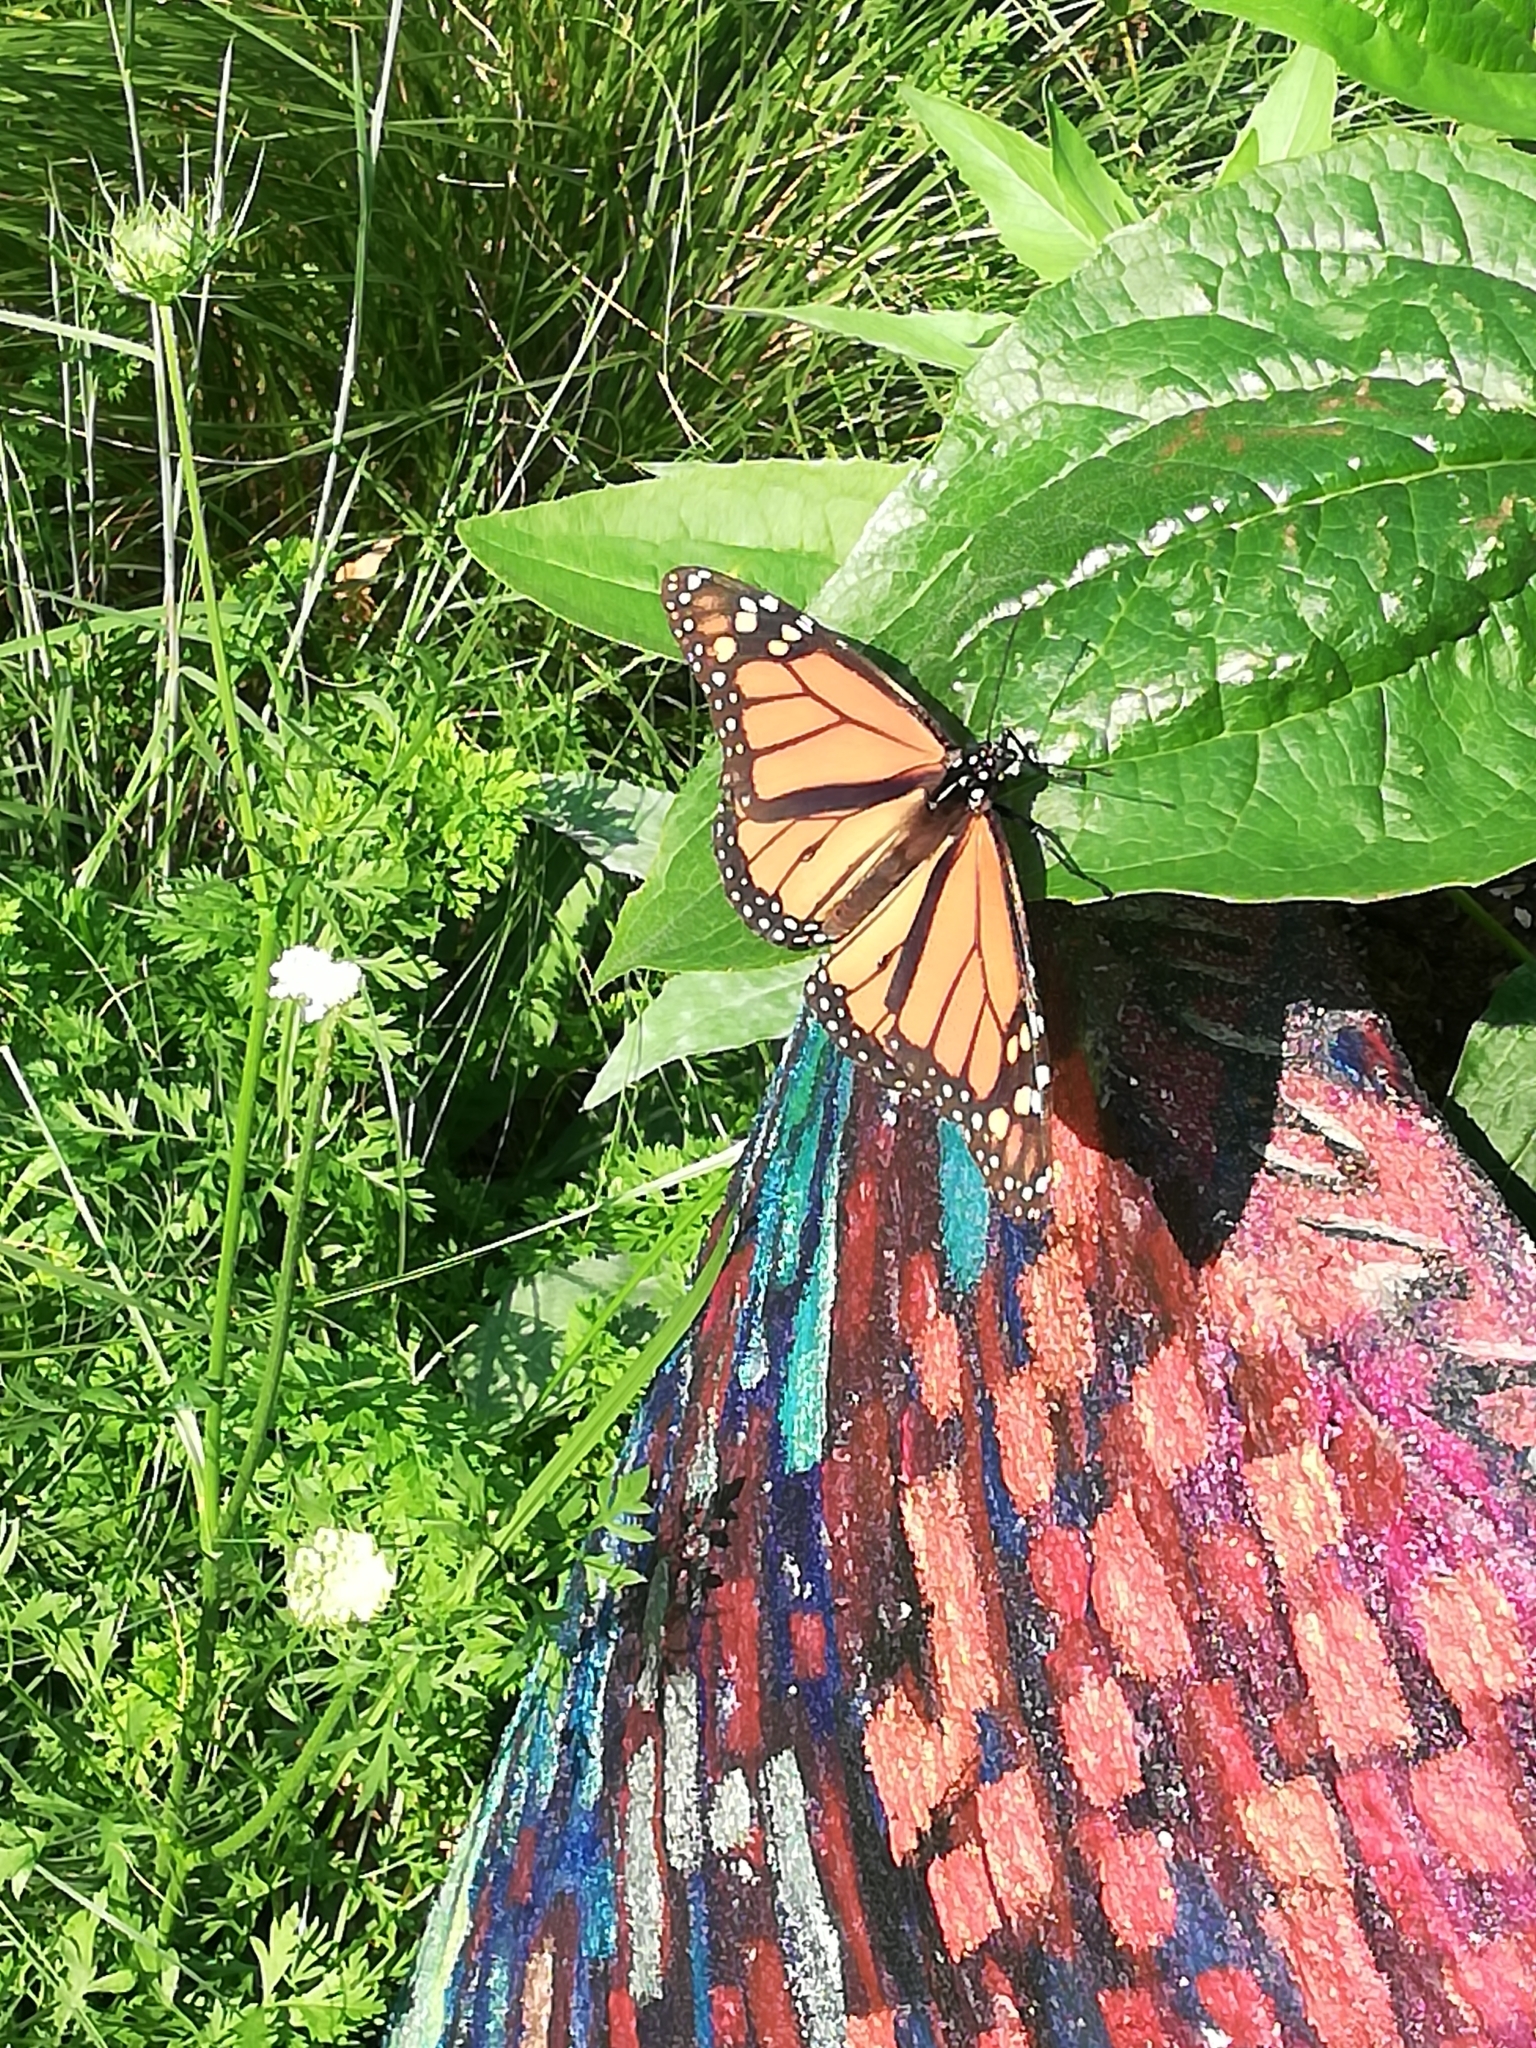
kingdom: Animalia
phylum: Arthropoda
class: Insecta
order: Lepidoptera
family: Nymphalidae
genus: Danaus
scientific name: Danaus plexippus
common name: Monarch
